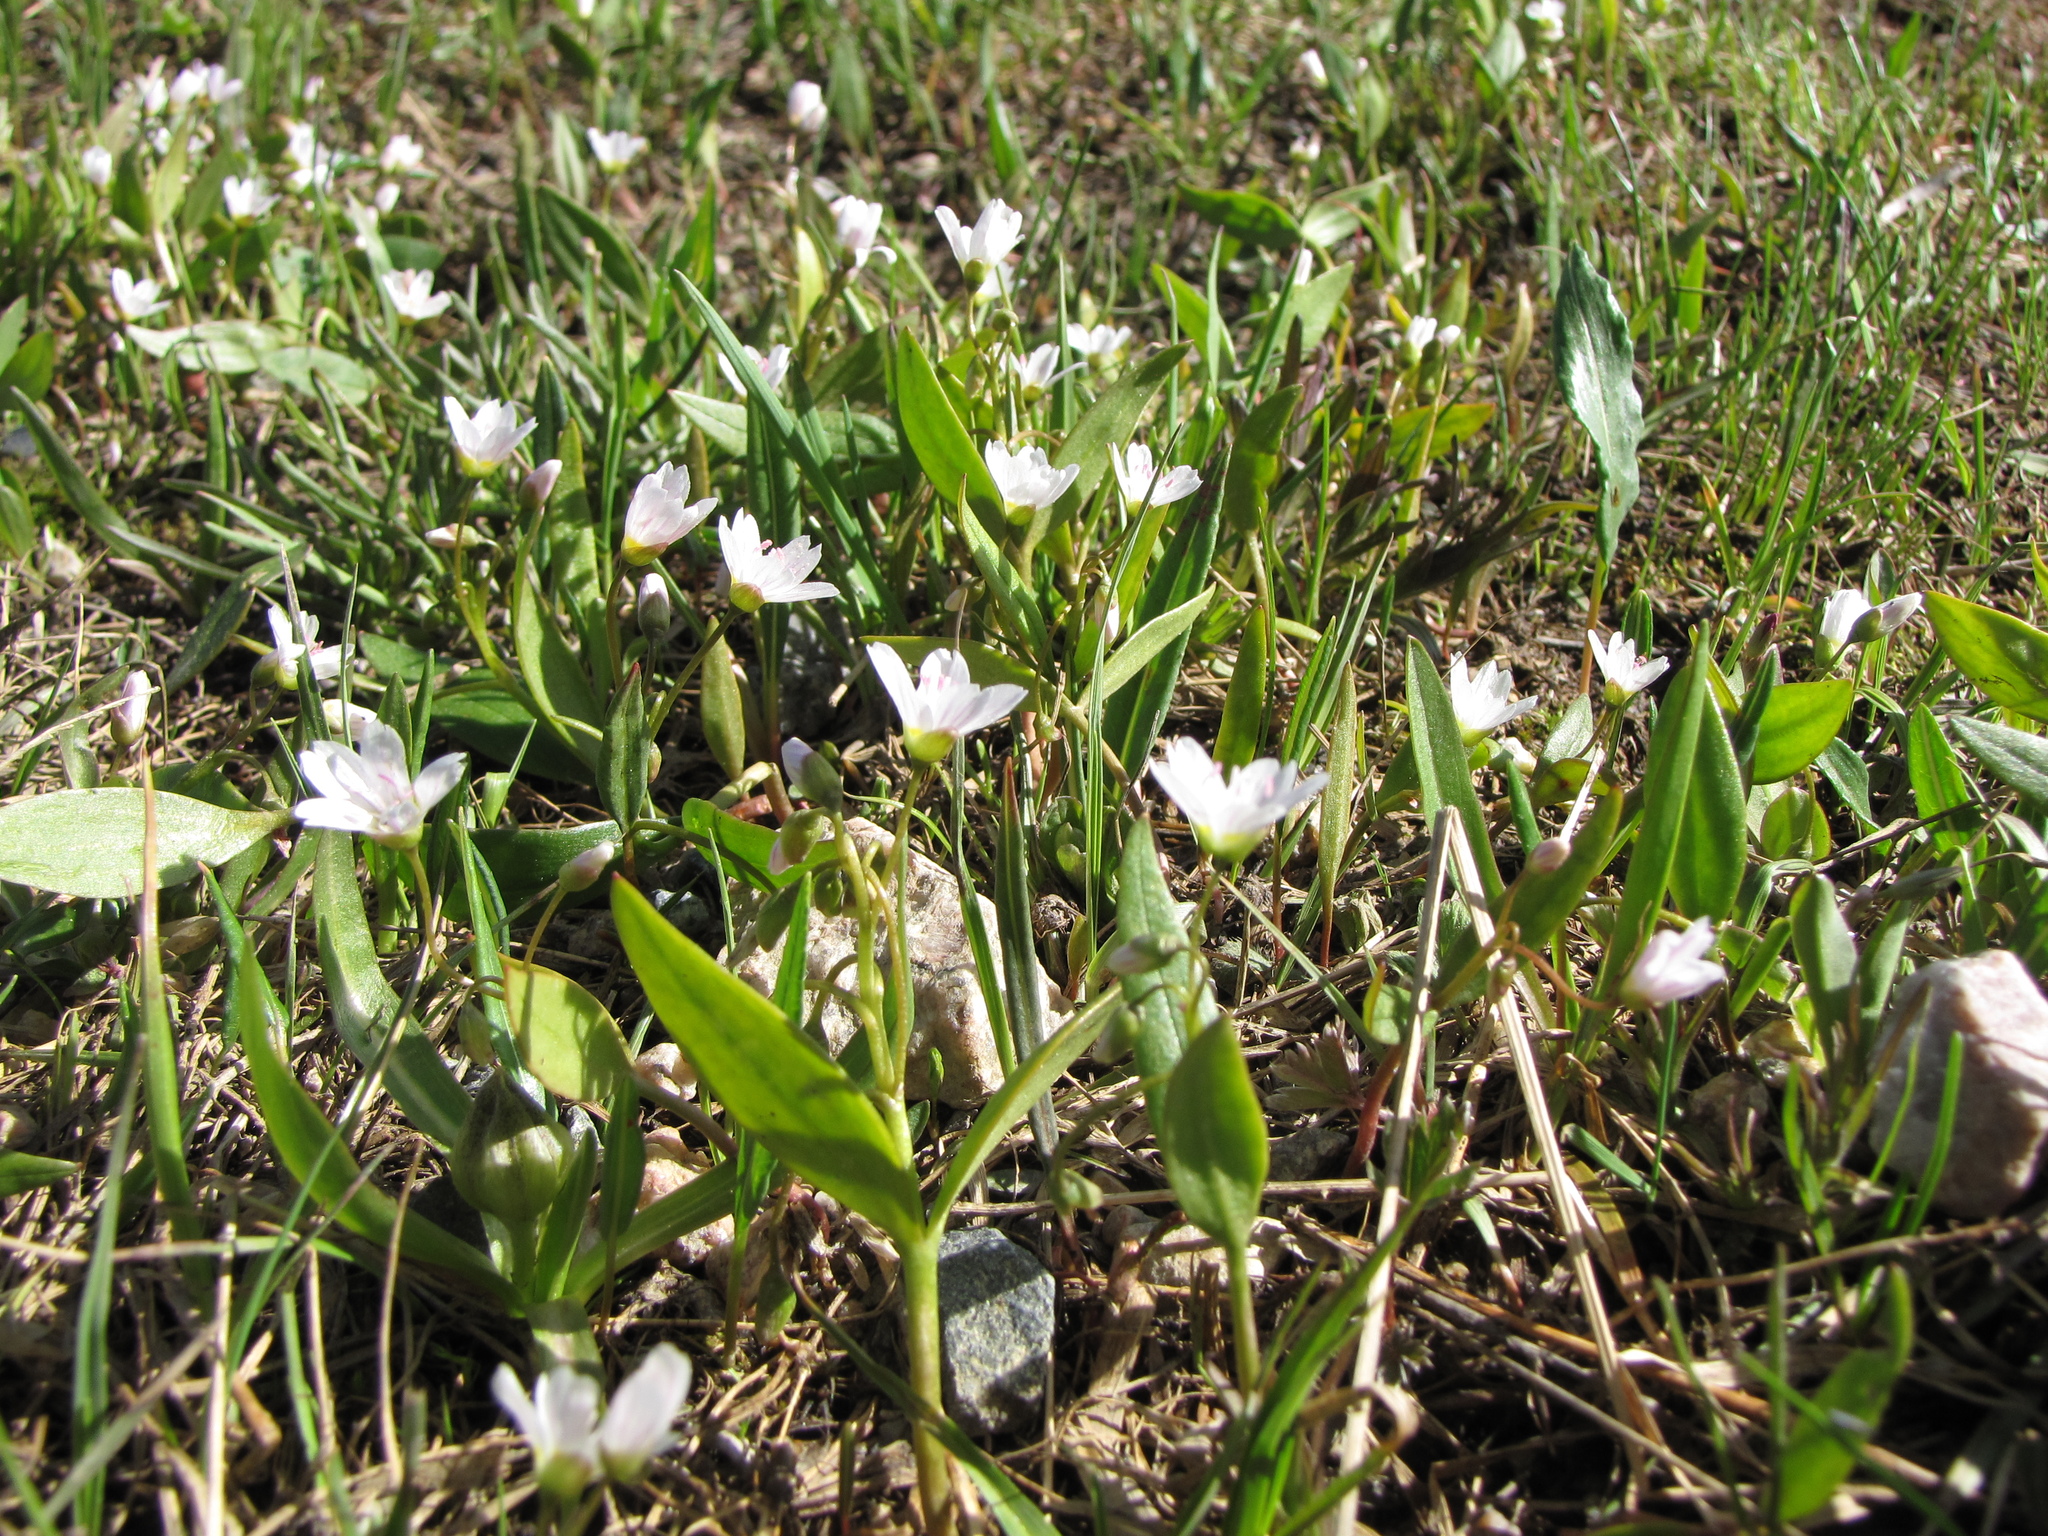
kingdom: Plantae
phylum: Tracheophyta
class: Magnoliopsida
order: Caryophyllales
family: Montiaceae
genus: Claytonia
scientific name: Claytonia lanceolata
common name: Western spring-beauty
